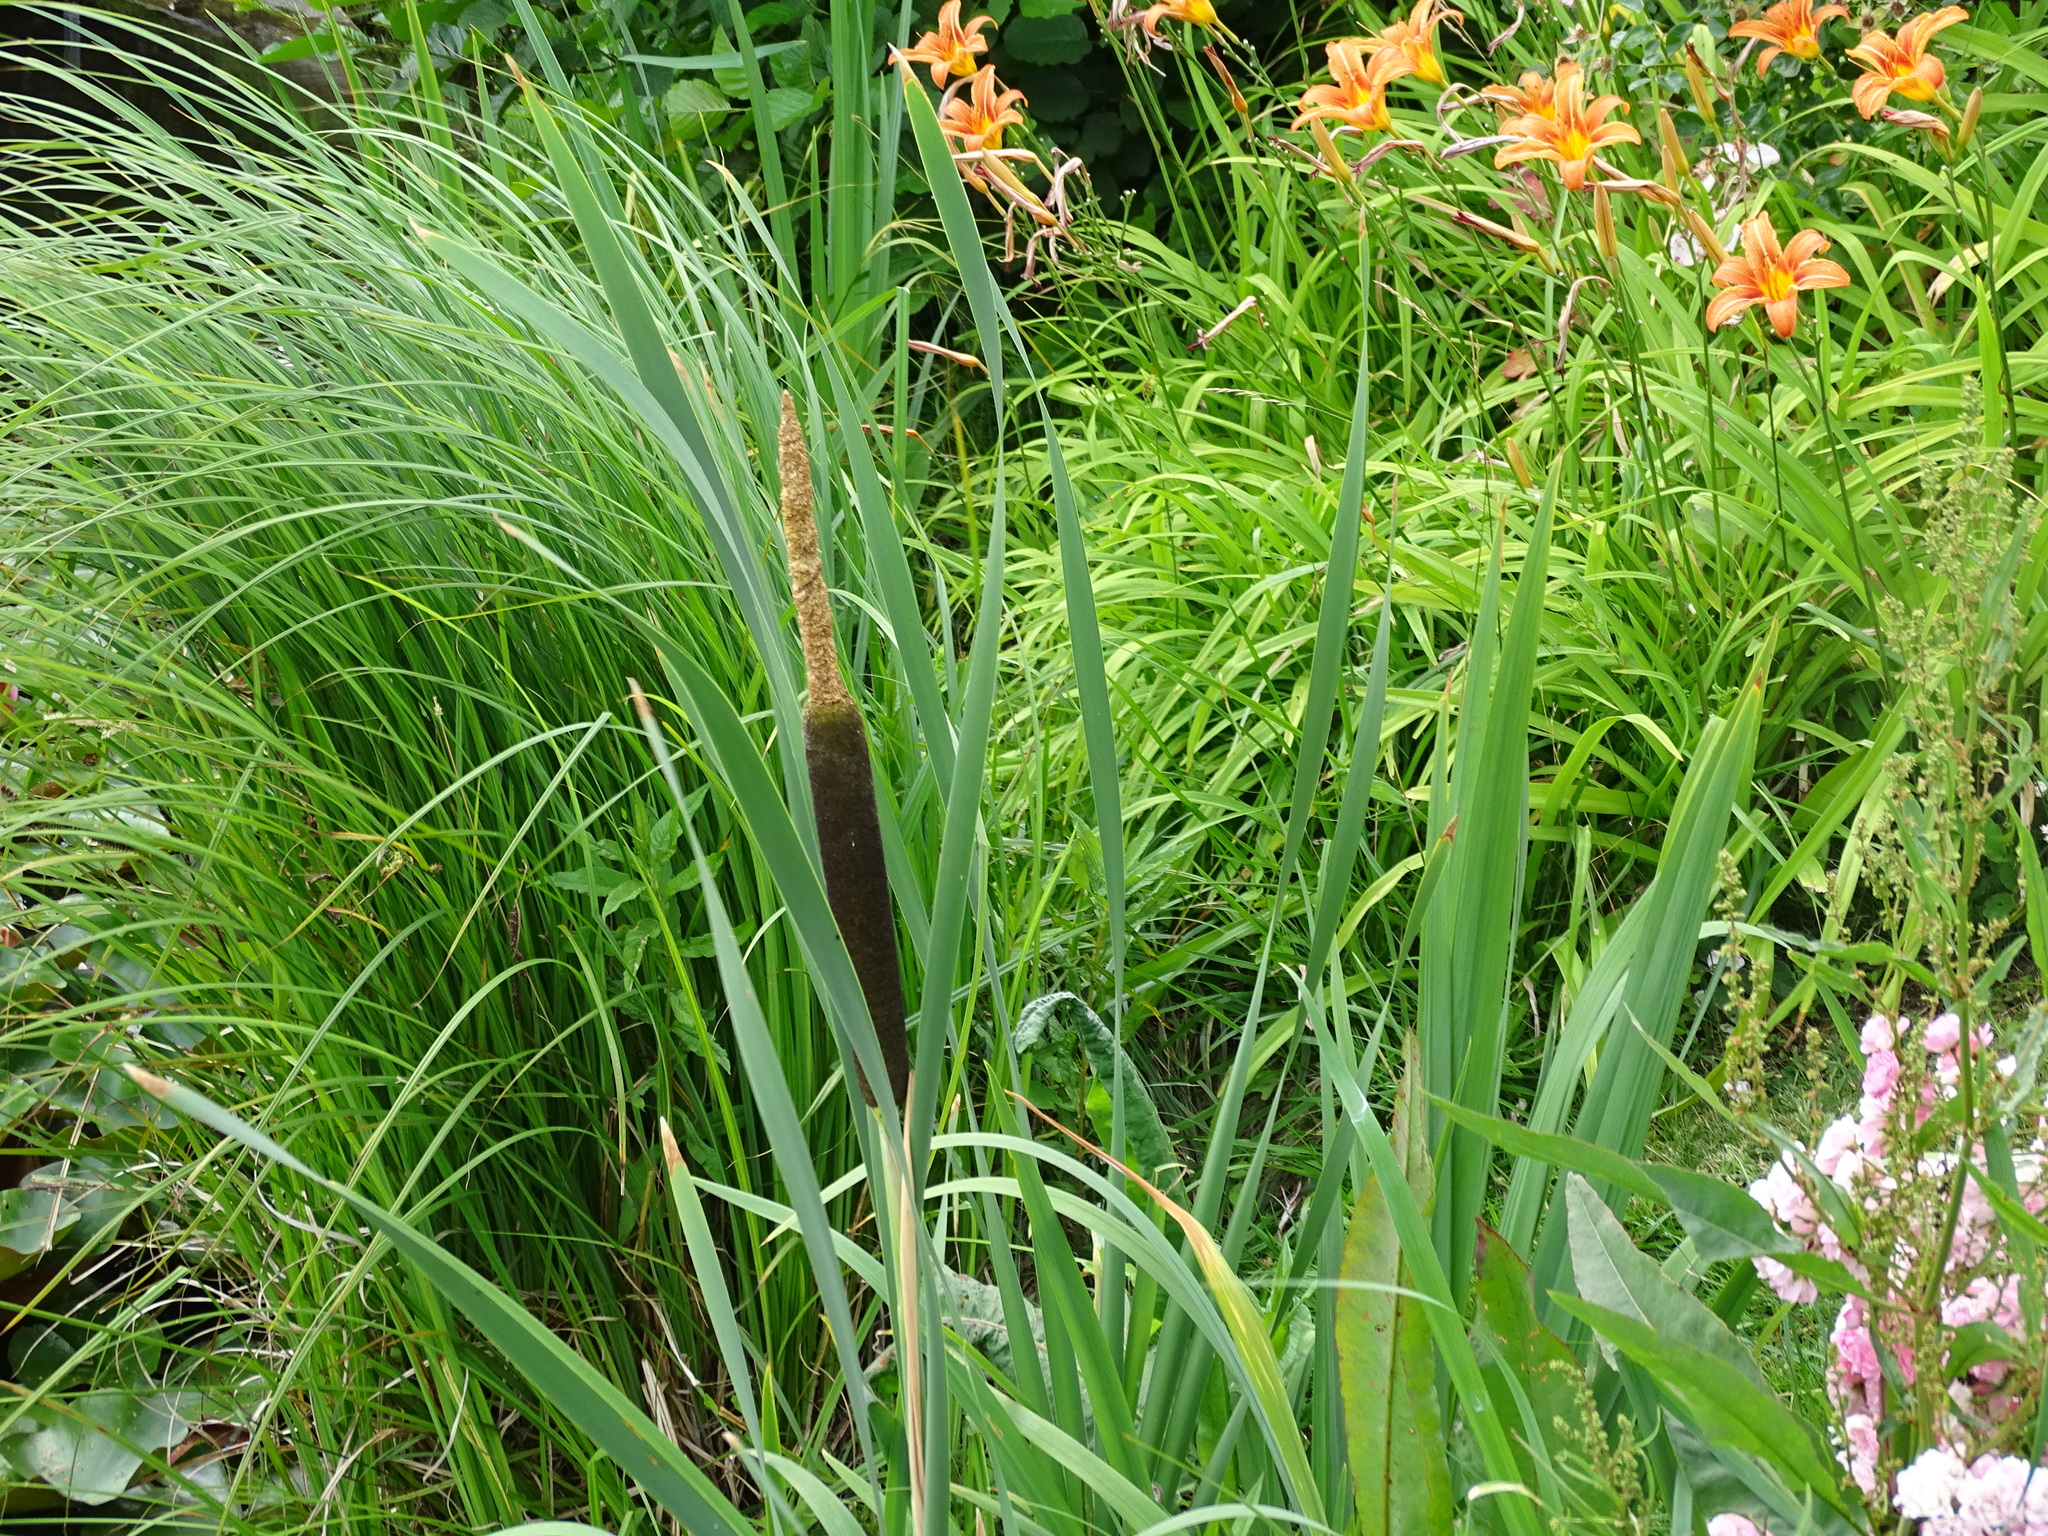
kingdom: Plantae
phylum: Tracheophyta
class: Liliopsida
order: Poales
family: Typhaceae
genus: Typha
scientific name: Typha latifolia
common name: Broadleaf cattail
